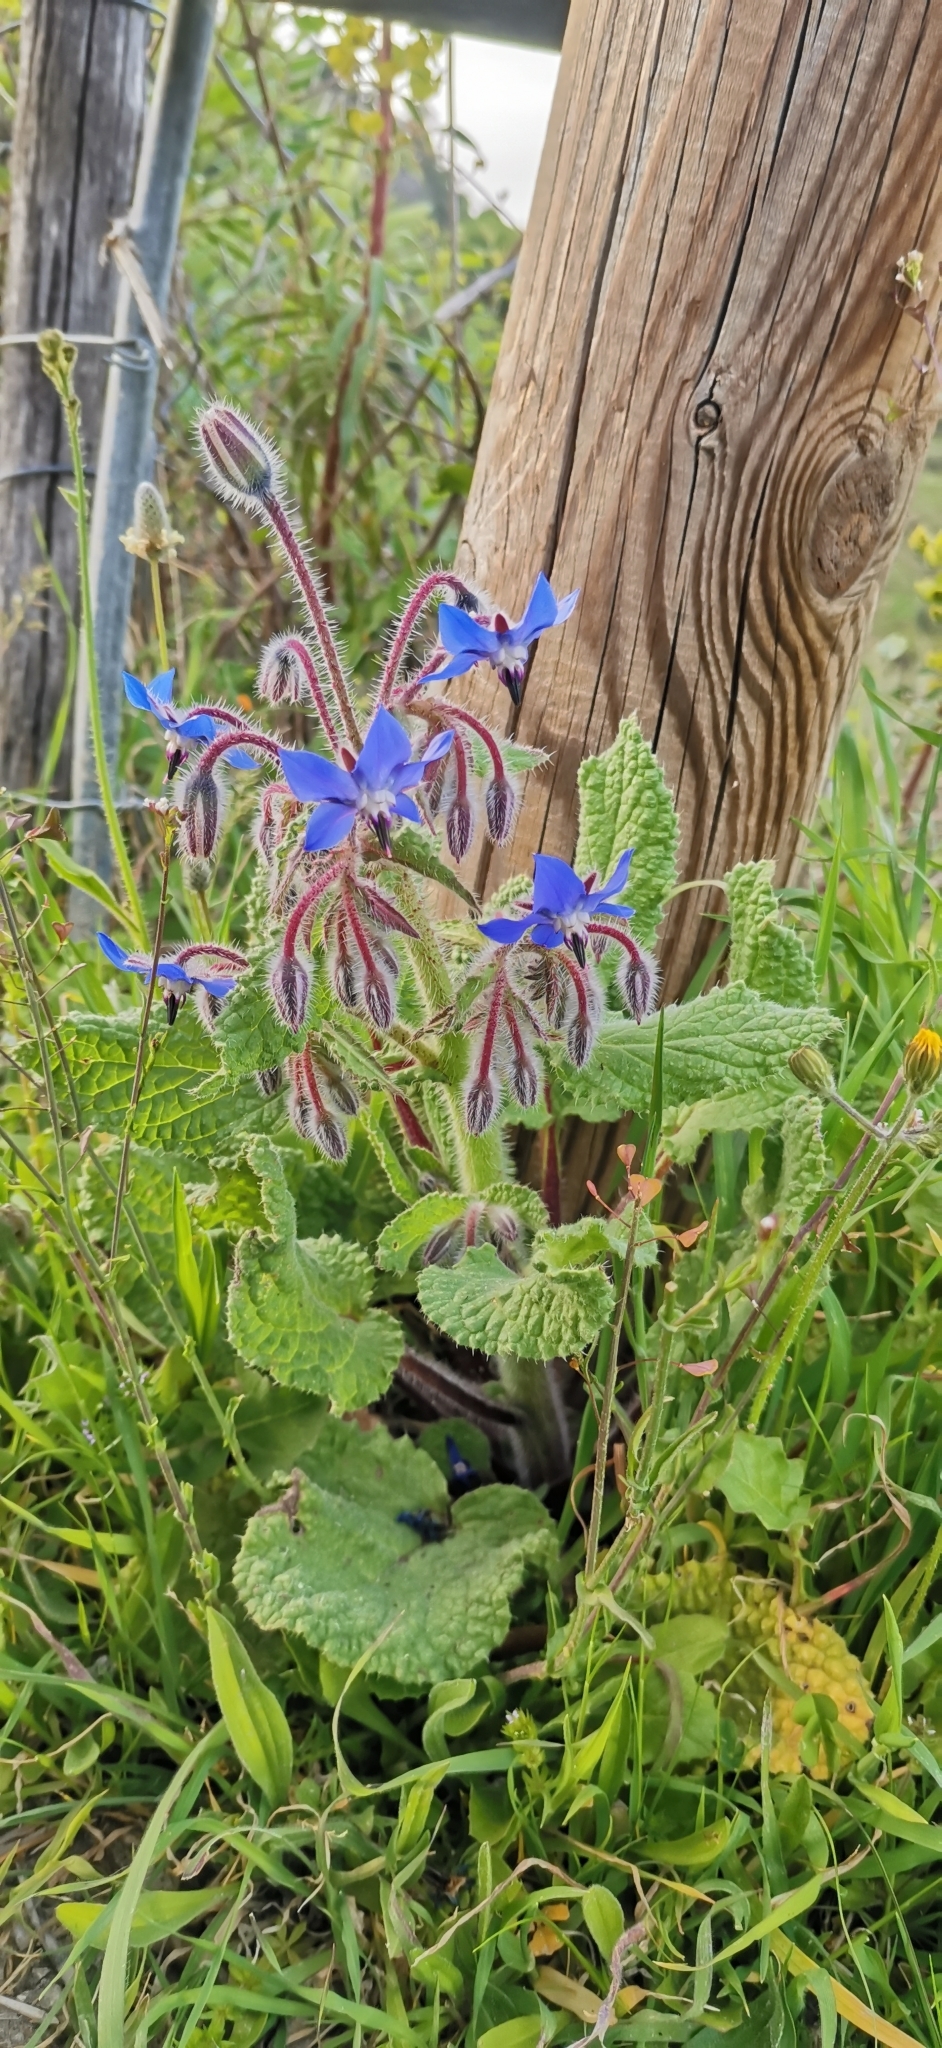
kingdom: Plantae
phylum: Tracheophyta
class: Magnoliopsida
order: Boraginales
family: Boraginaceae
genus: Borago
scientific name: Borago officinalis
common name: Borage
